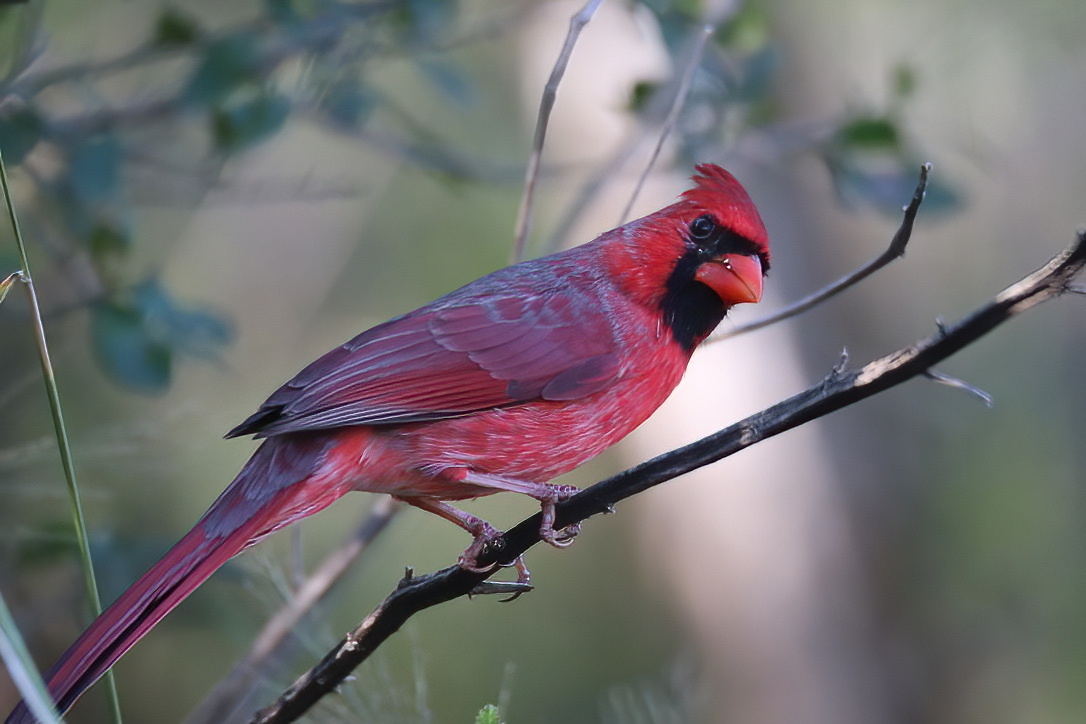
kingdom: Animalia
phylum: Chordata
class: Aves
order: Passeriformes
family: Cardinalidae
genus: Cardinalis
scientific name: Cardinalis cardinalis
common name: Northern cardinal
